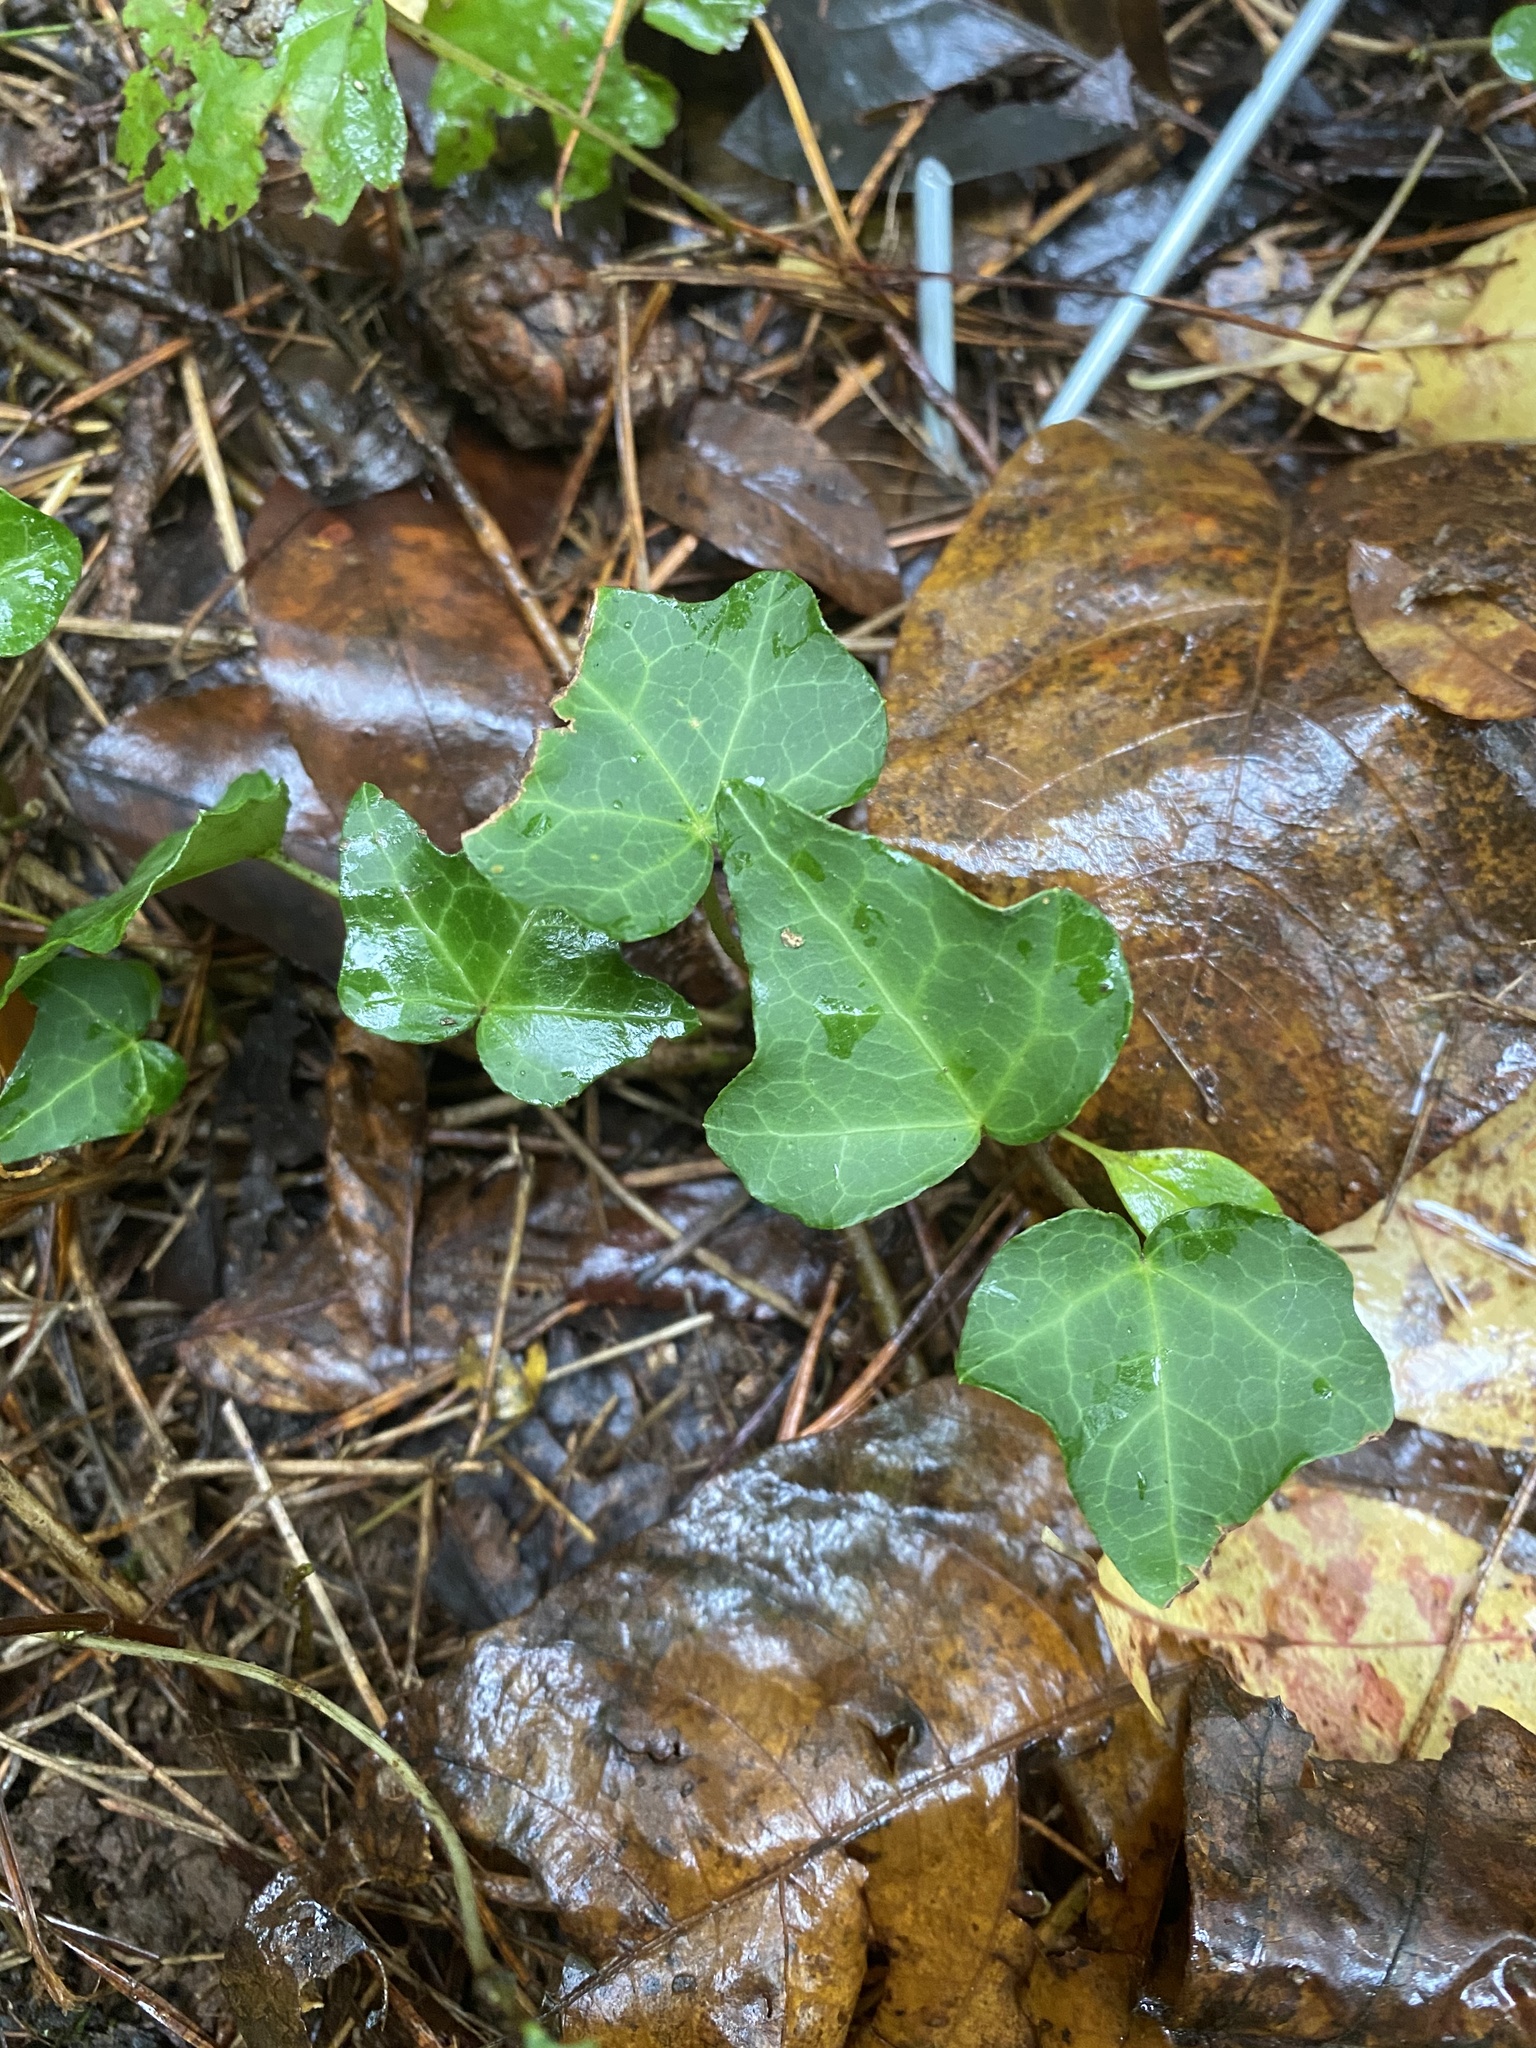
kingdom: Plantae
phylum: Tracheophyta
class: Magnoliopsida
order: Apiales
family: Araliaceae
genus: Hedera
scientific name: Hedera helix
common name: Ivy
